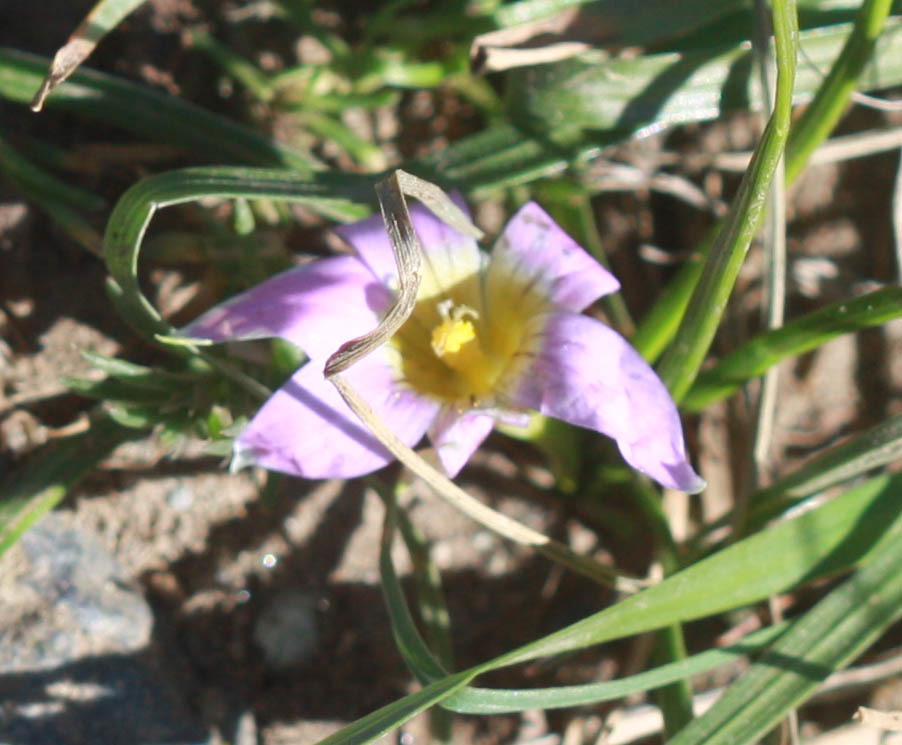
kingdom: Plantae
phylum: Tracheophyta
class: Liliopsida
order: Asparagales
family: Iridaceae
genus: Romulea
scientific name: Romulea rosea
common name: Oniongrass
